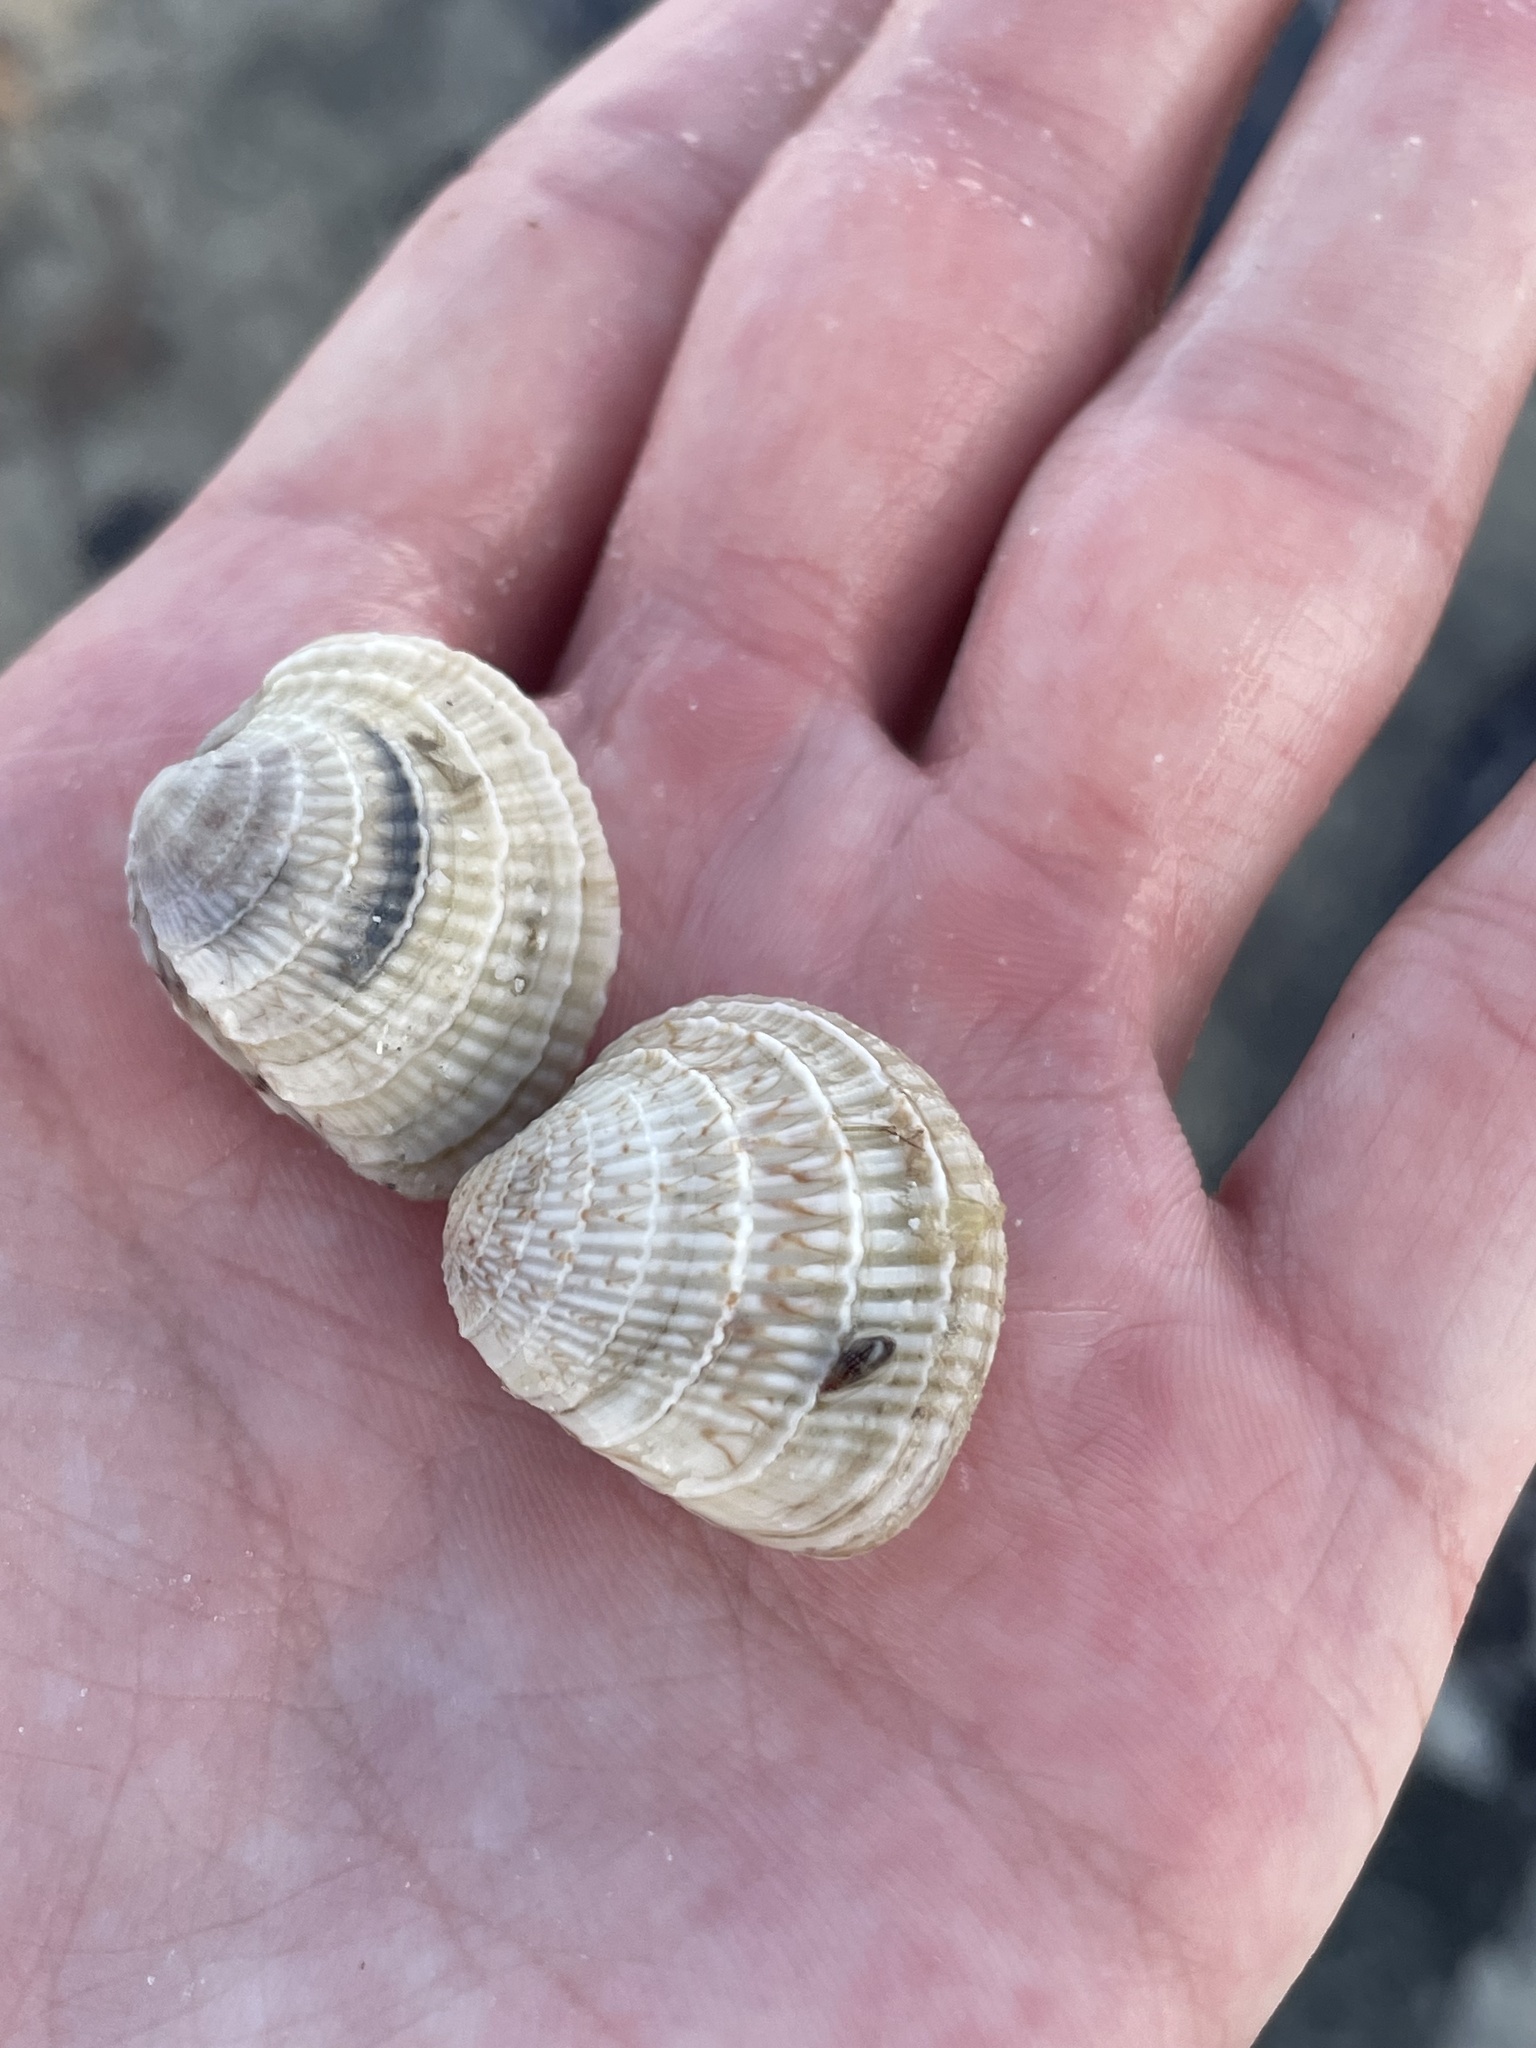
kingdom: Animalia
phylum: Mollusca
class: Bivalvia
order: Venerida
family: Veneridae
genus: Chione
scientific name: Chione elevata
